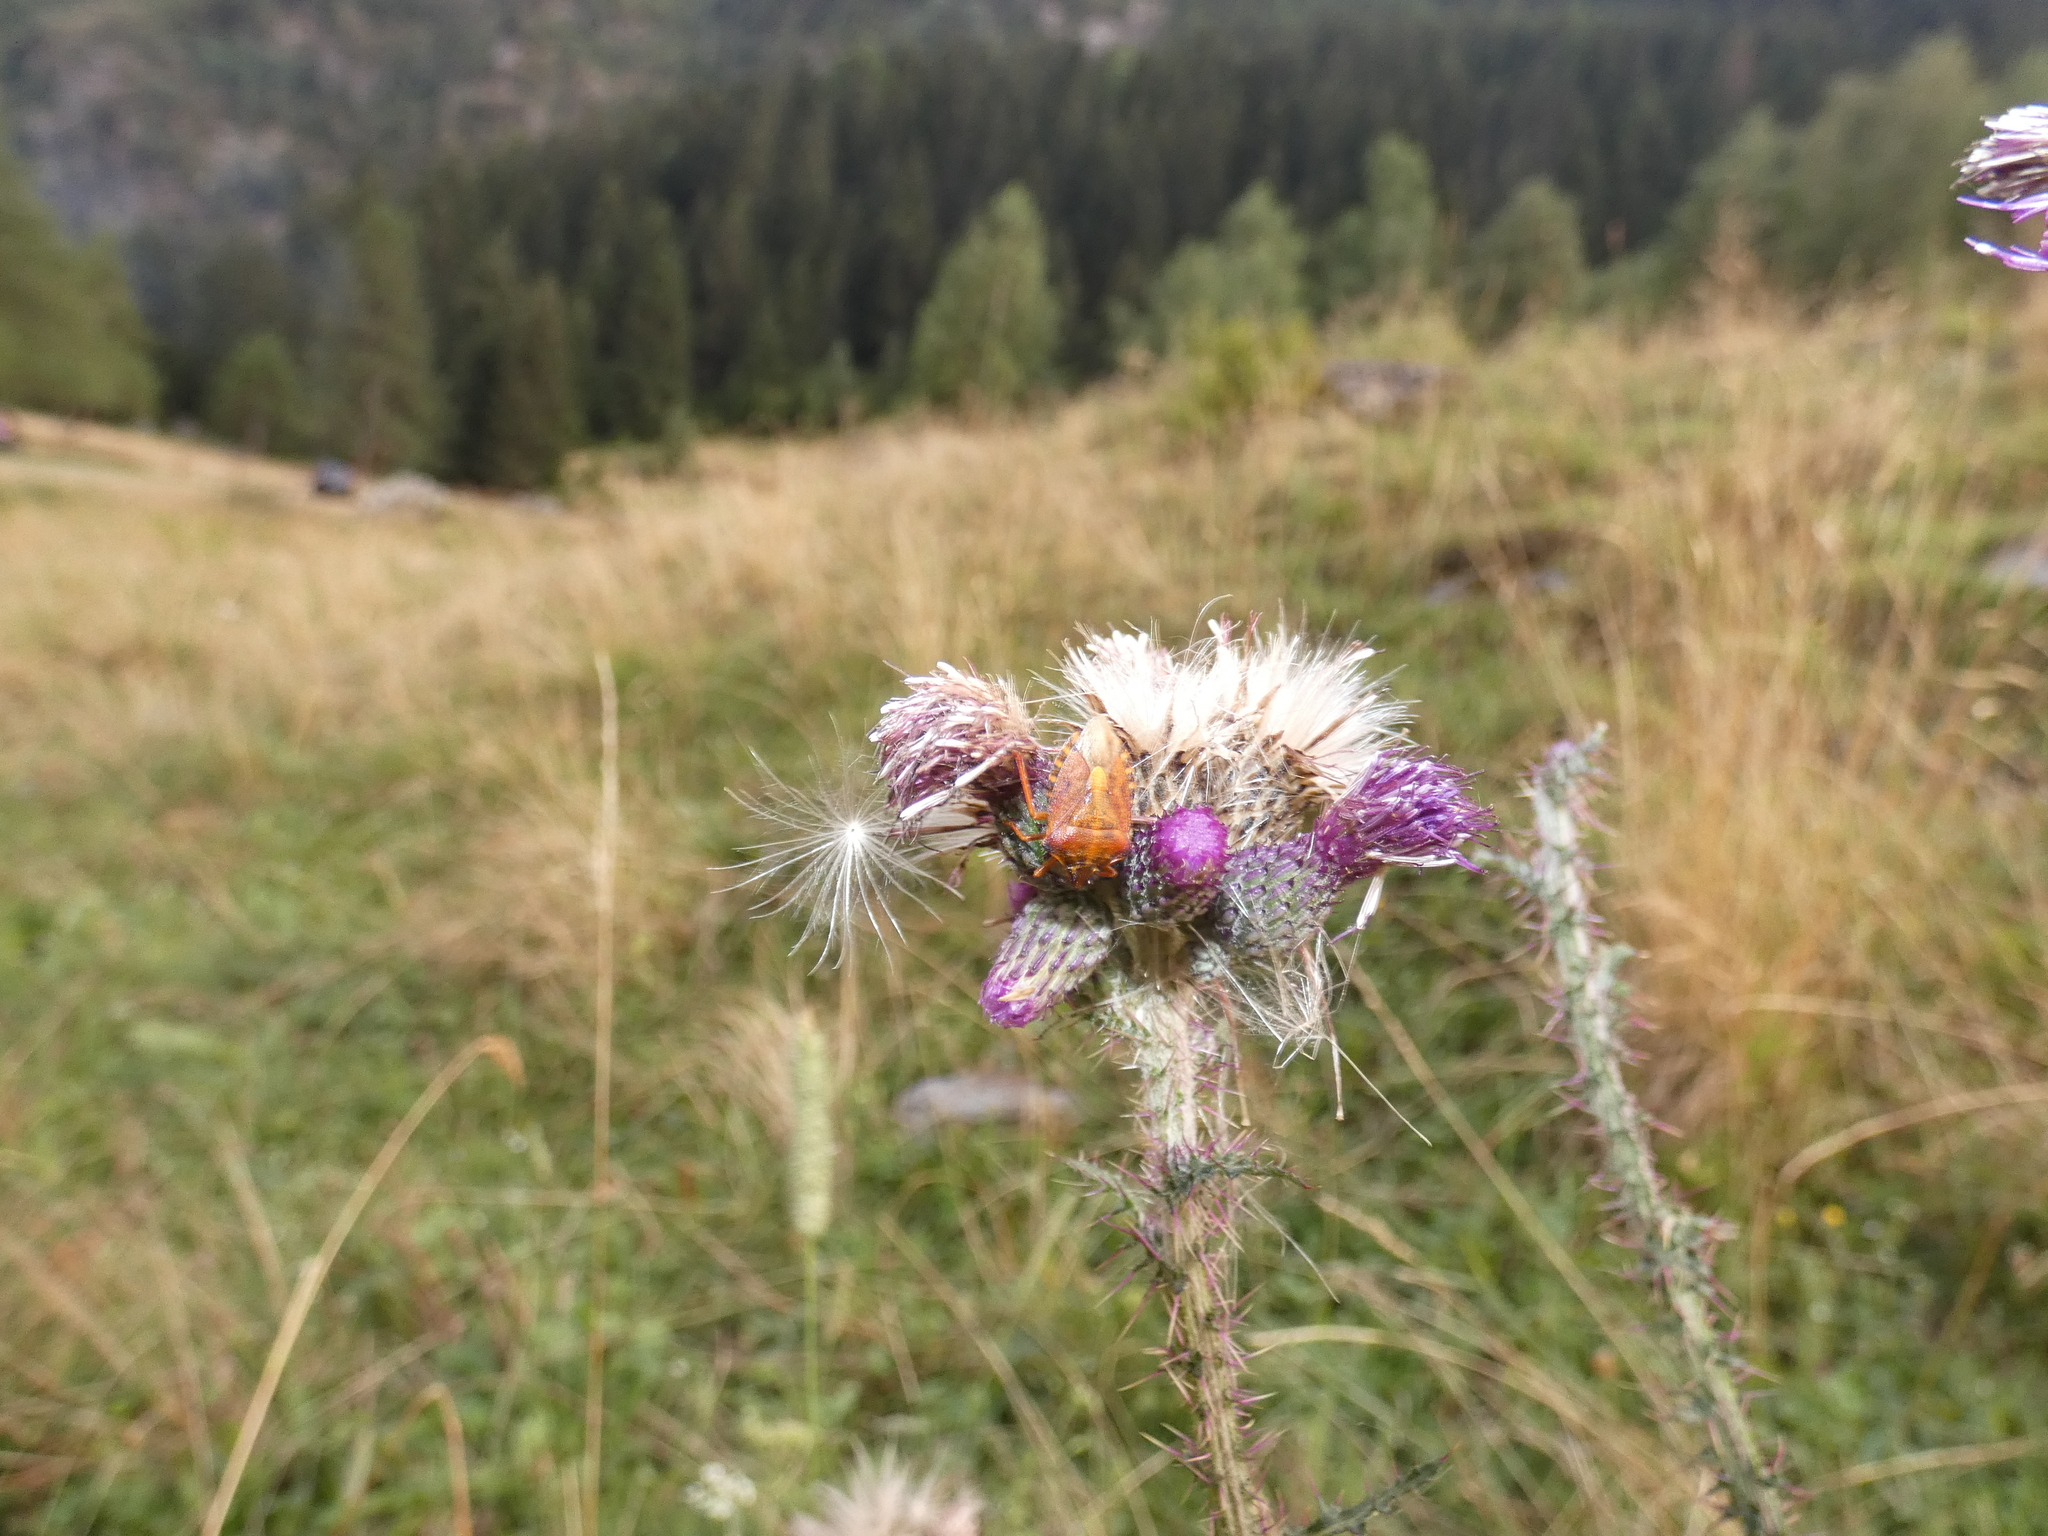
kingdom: Animalia
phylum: Arthropoda
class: Insecta
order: Hemiptera
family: Pentatomidae
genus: Carpocoris
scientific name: Carpocoris purpureipennis
